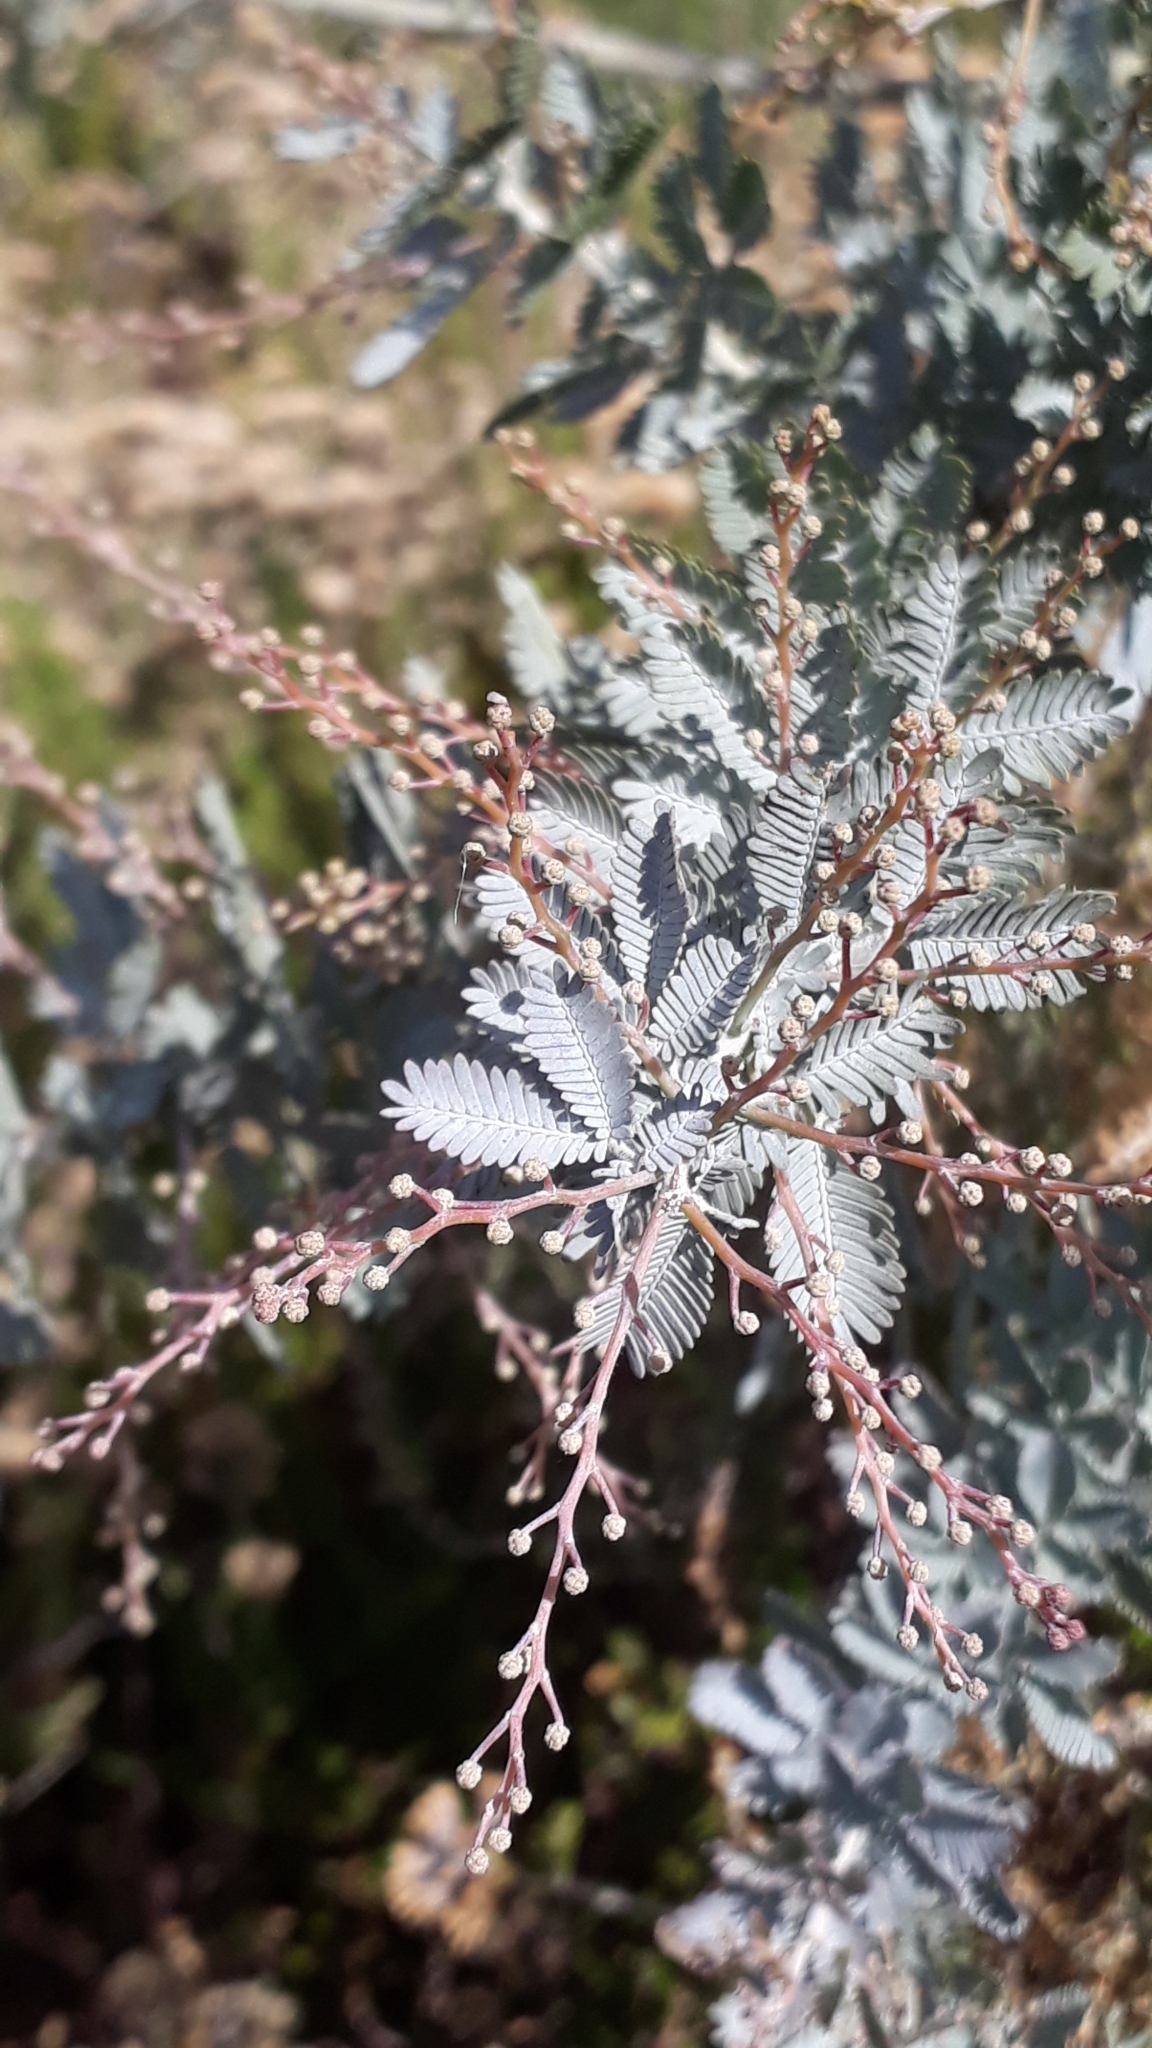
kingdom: Plantae
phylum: Tracheophyta
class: Magnoliopsida
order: Fabales
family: Fabaceae
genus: Acacia
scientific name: Acacia baileyana
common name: Cootamundra wattle
